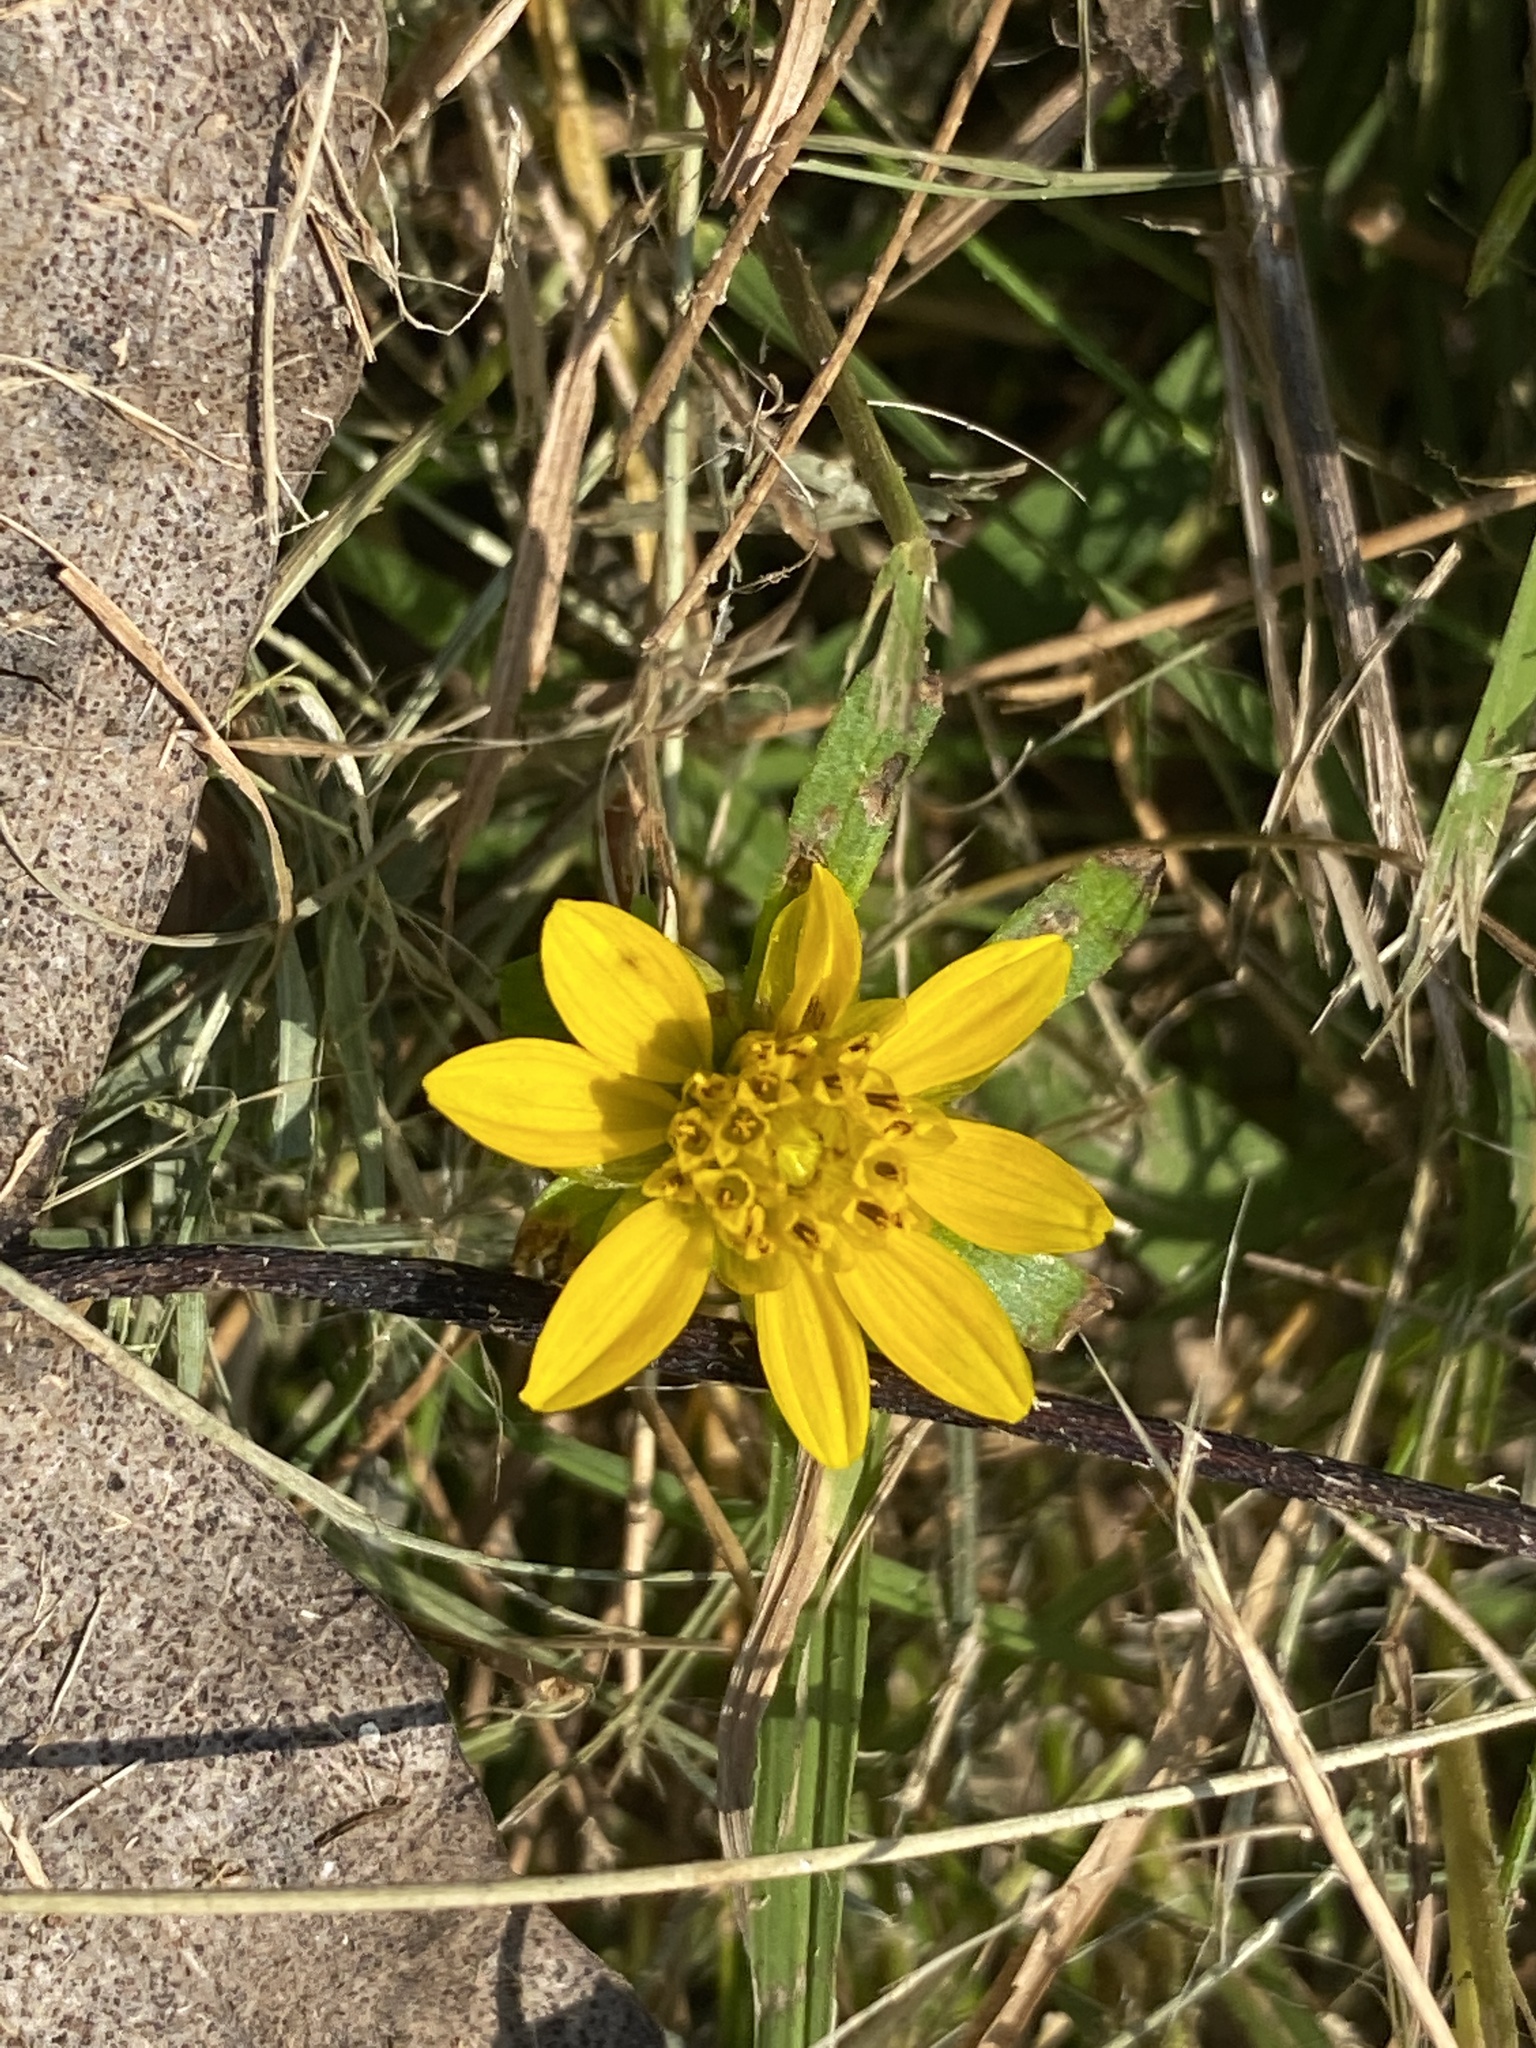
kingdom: Plantae
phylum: Tracheophyta
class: Magnoliopsida
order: Asterales
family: Asteraceae
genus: Bidens
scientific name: Bidens cernua
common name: Nodding bur-marigold
